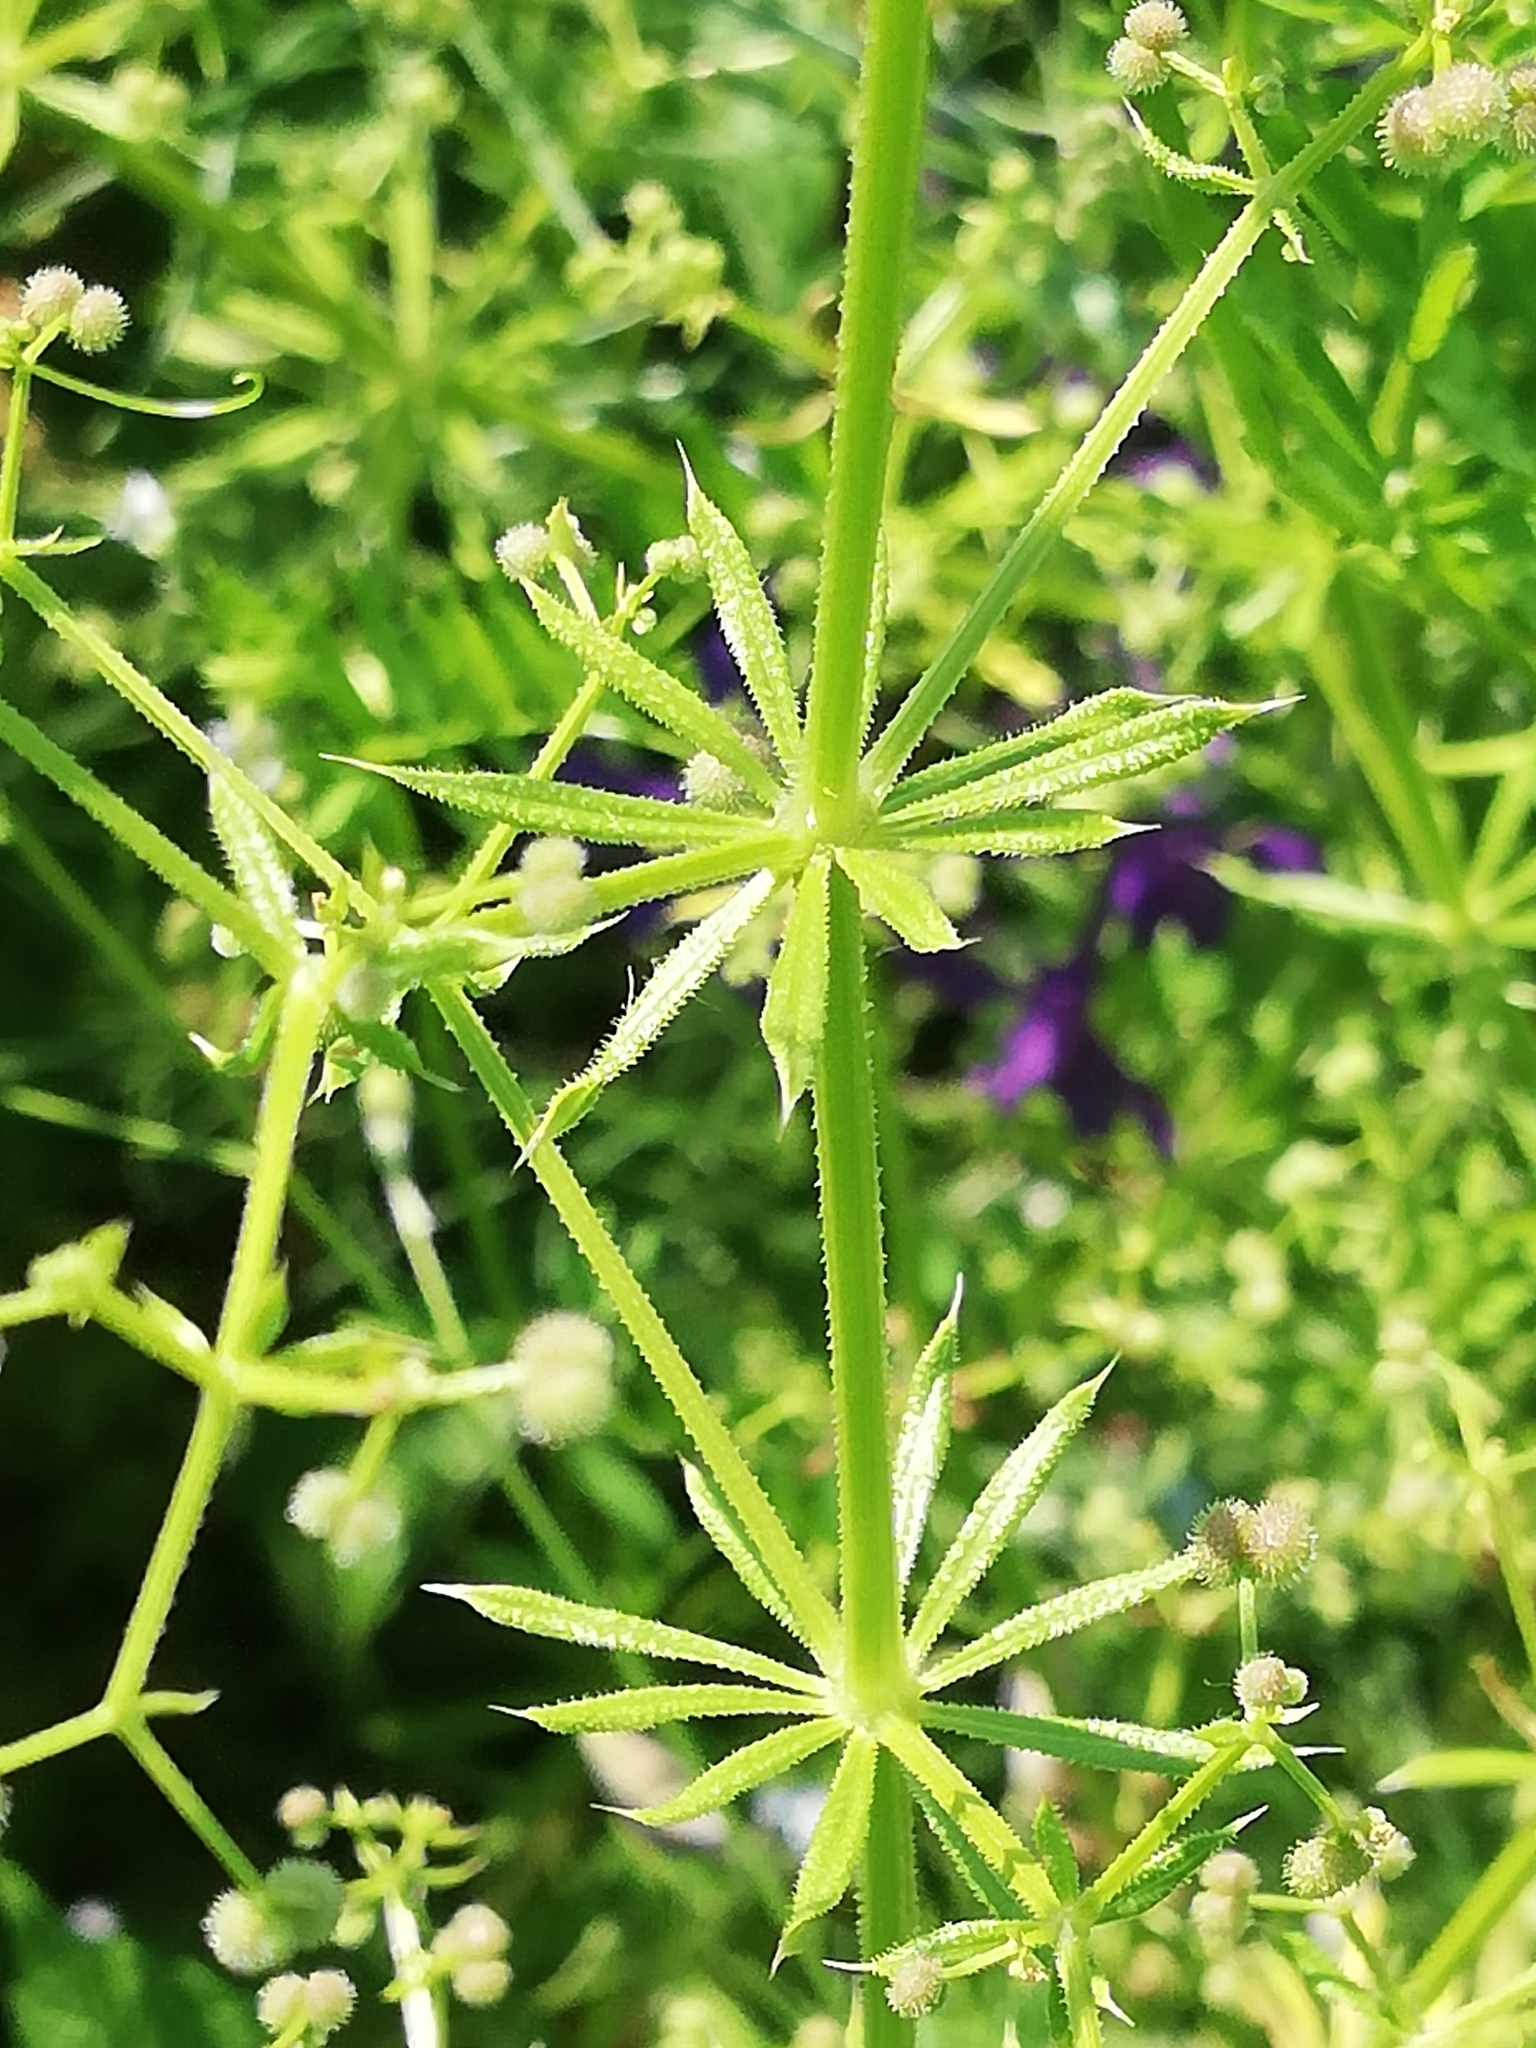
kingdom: Plantae
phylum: Tracheophyta
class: Magnoliopsida
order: Gentianales
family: Rubiaceae
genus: Galium
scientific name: Galium aparine
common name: Cleavers
